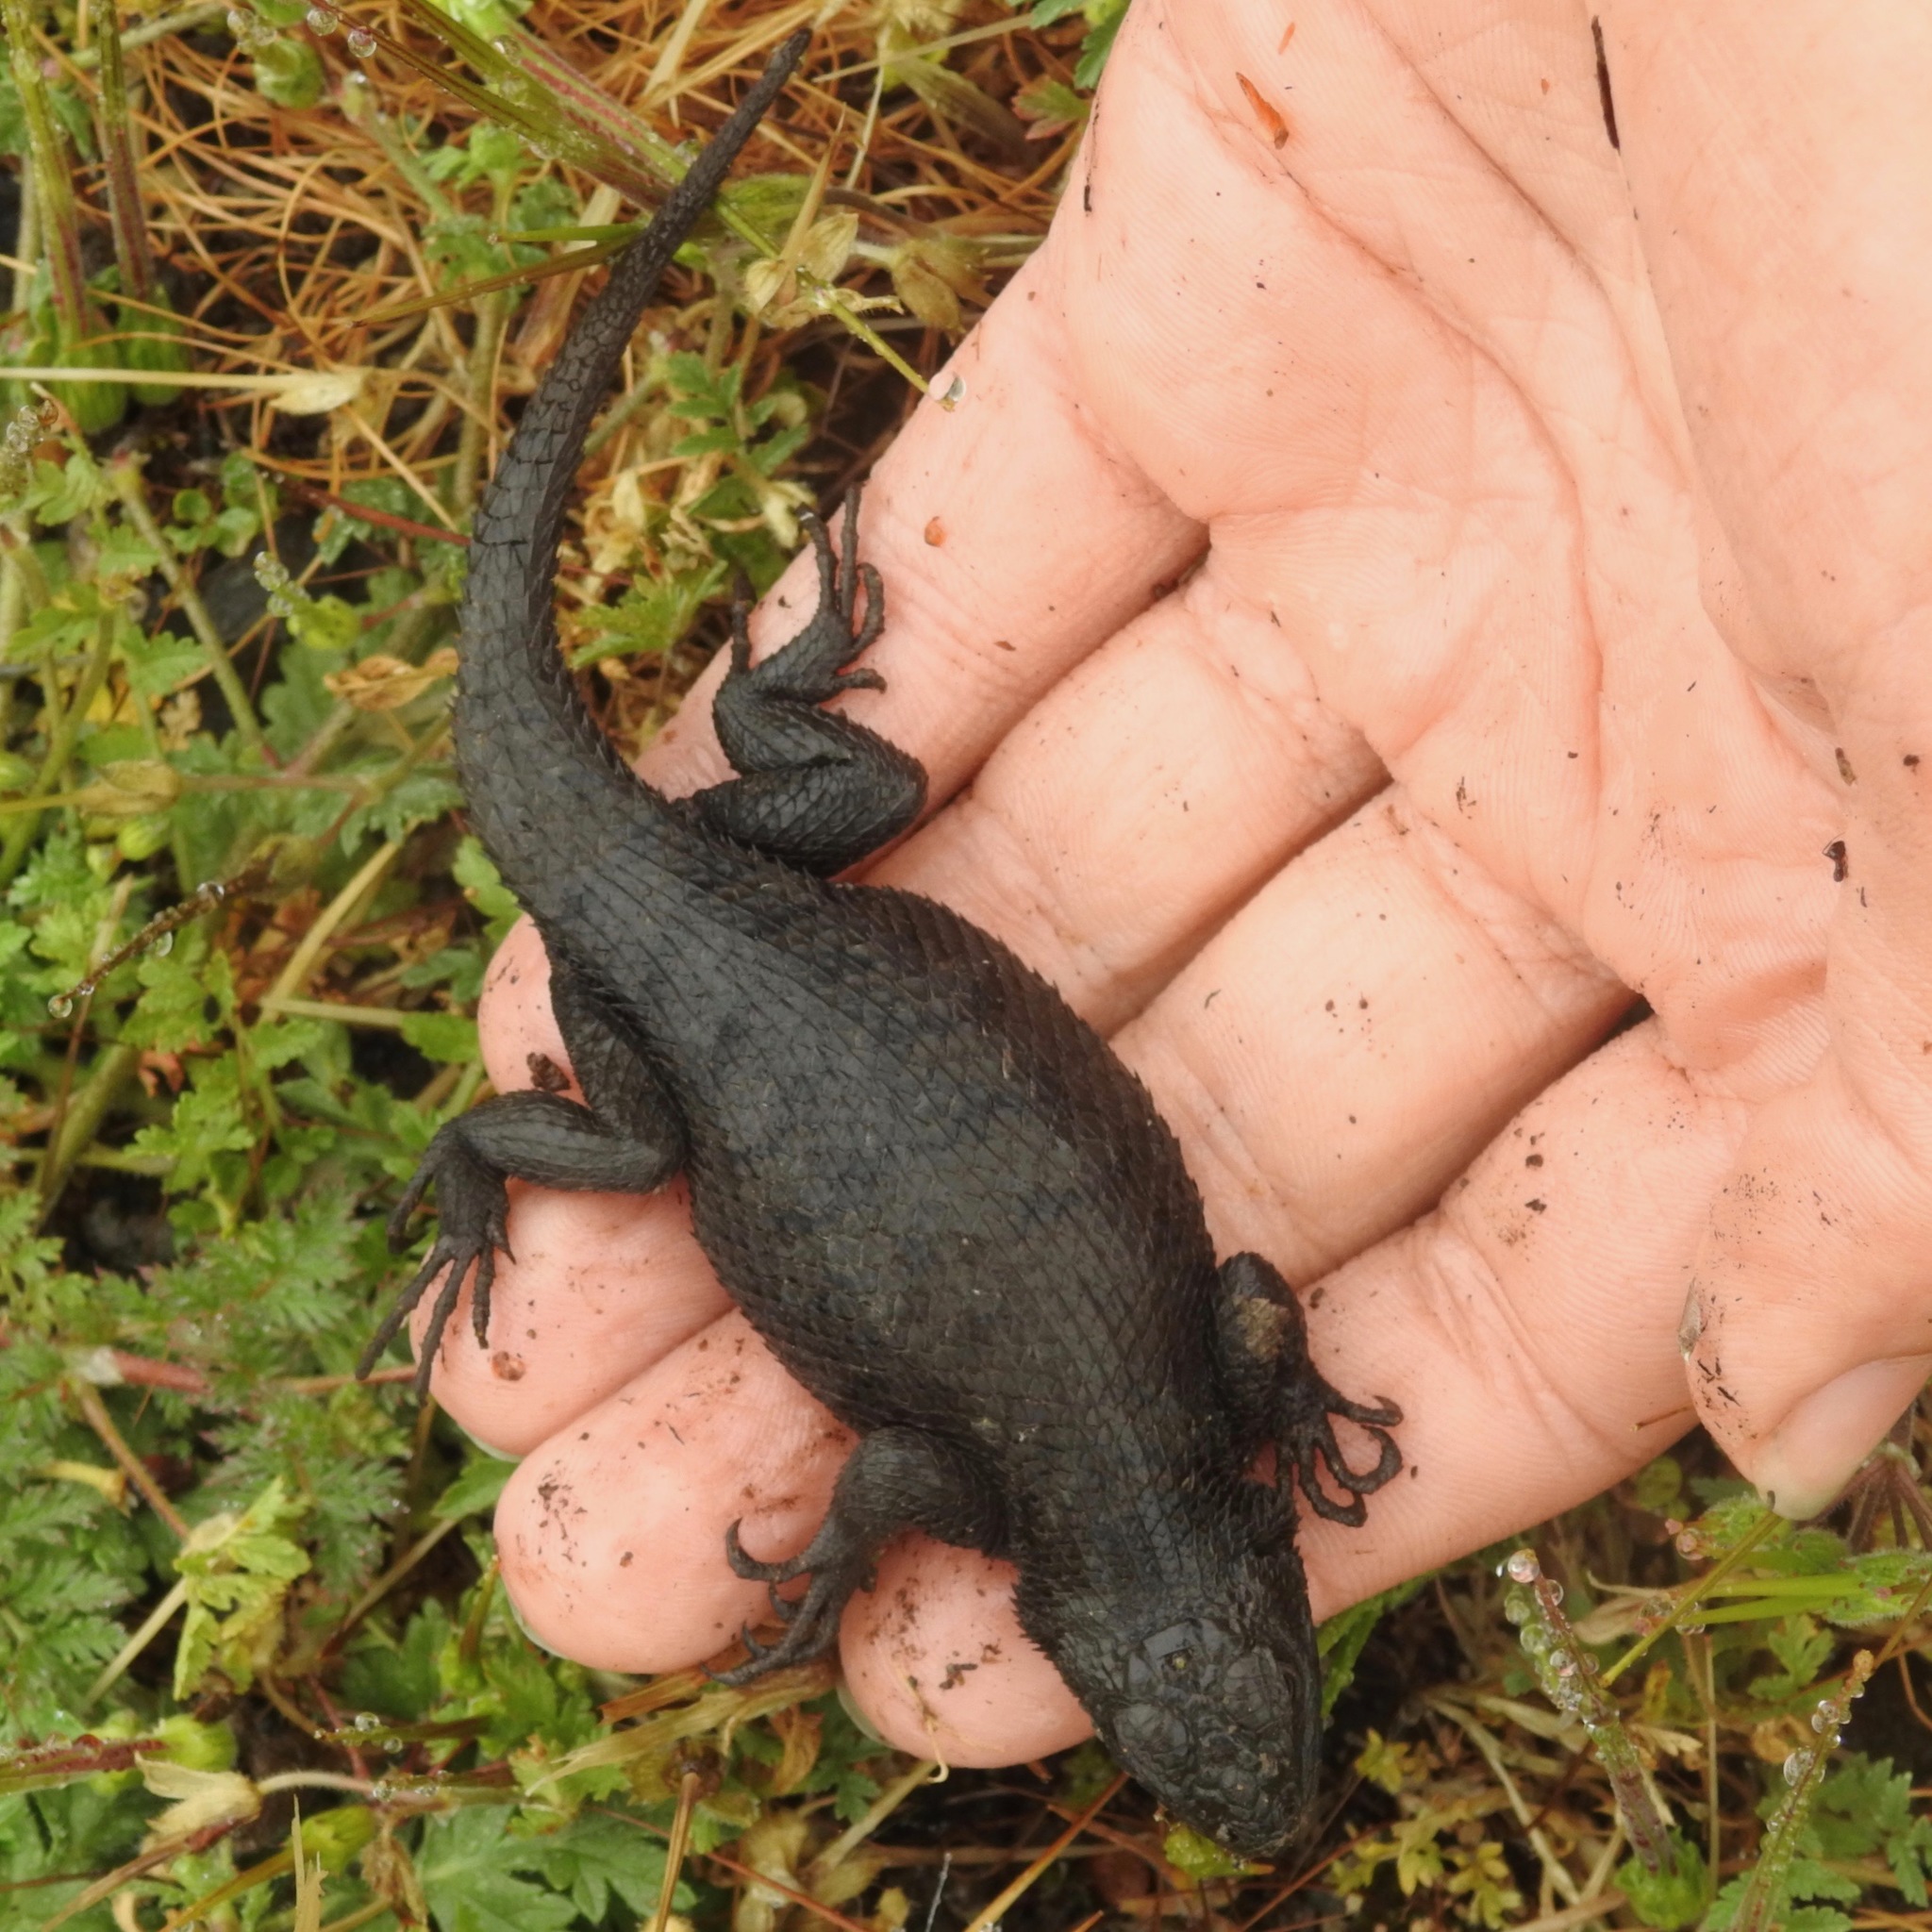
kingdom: Animalia
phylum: Chordata
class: Squamata
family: Phrynosomatidae
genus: Sceloporus
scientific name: Sceloporus occidentalis
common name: Western fence lizard
